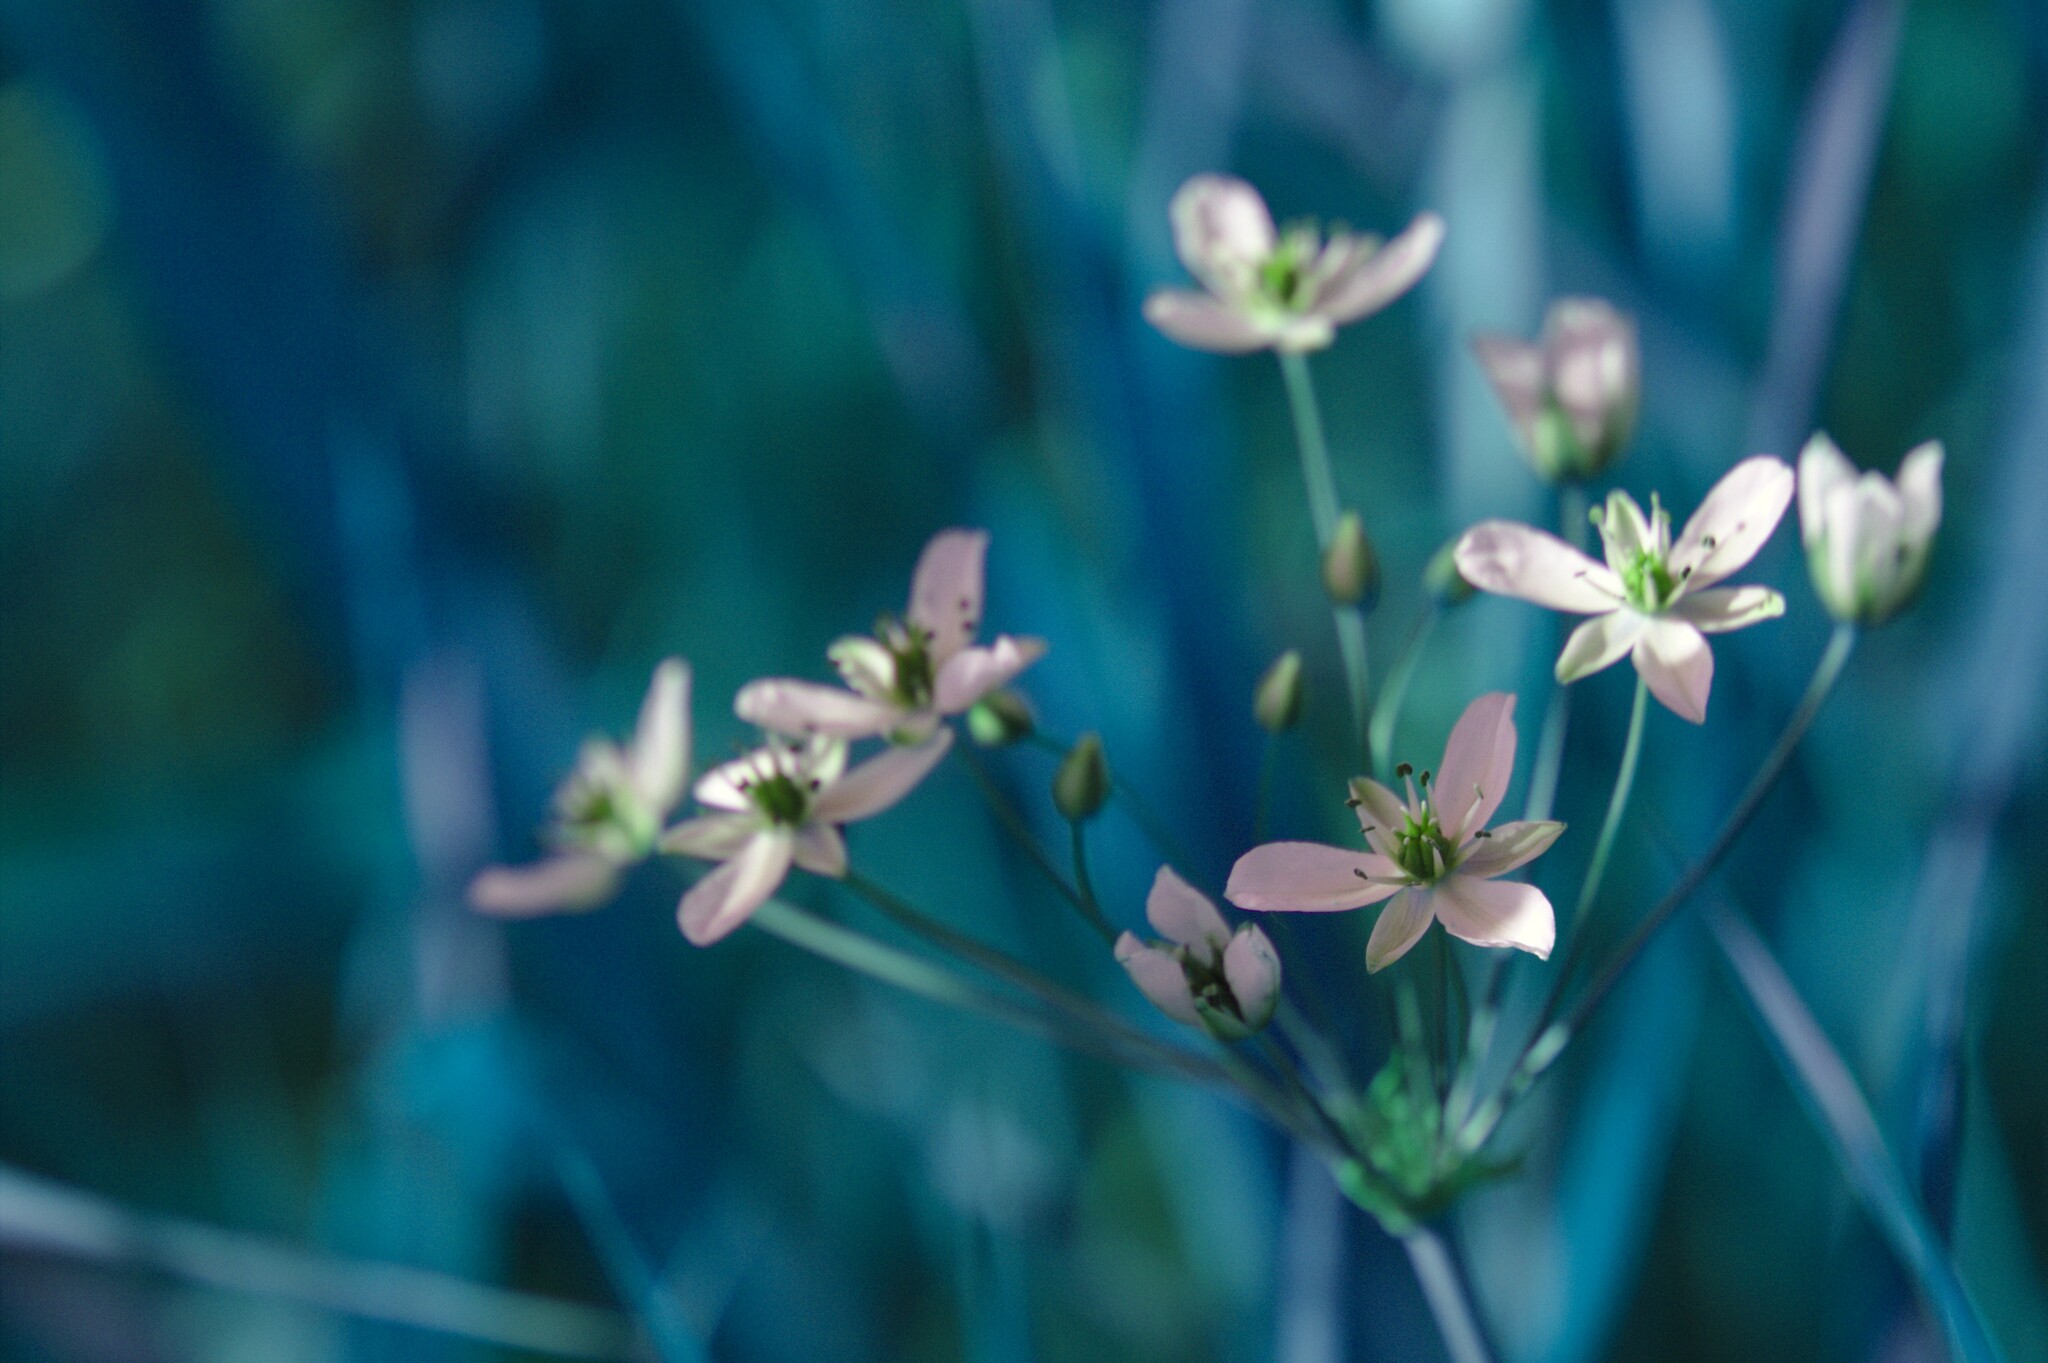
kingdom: Plantae
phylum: Tracheophyta
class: Liliopsida
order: Alismatales
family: Butomaceae
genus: Butomus
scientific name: Butomus umbellatus
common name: Flowering-rush
